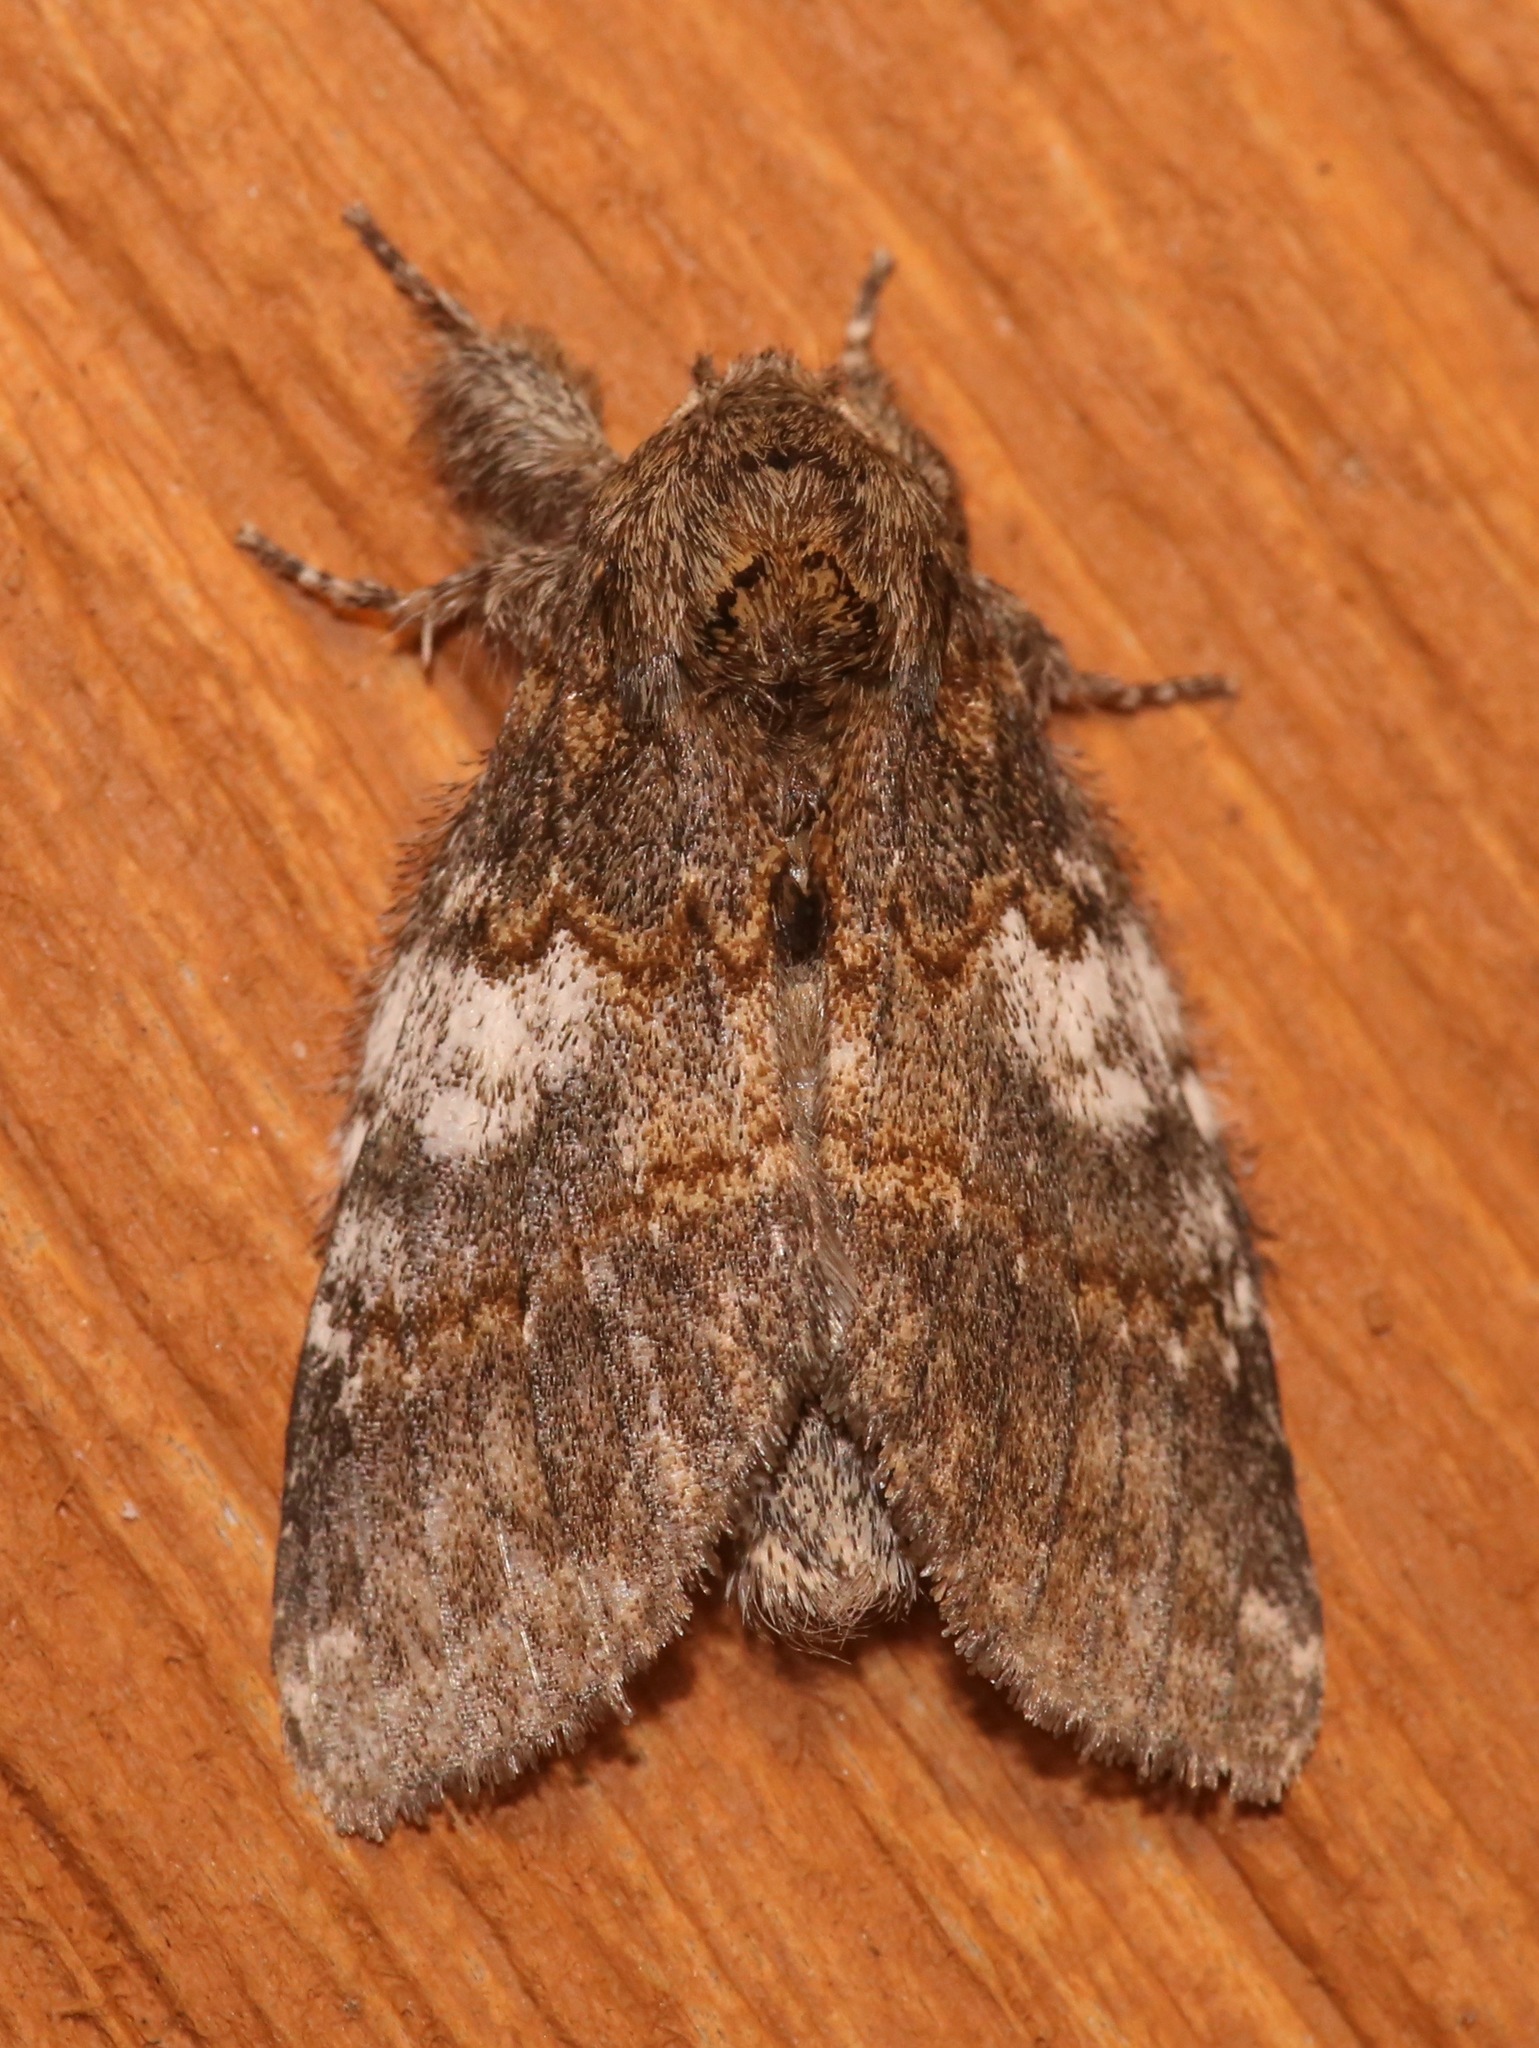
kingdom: Animalia
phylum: Arthropoda
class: Insecta
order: Lepidoptera
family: Notodontidae
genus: Peridea
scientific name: Peridea angulosa
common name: Angulose prominent
